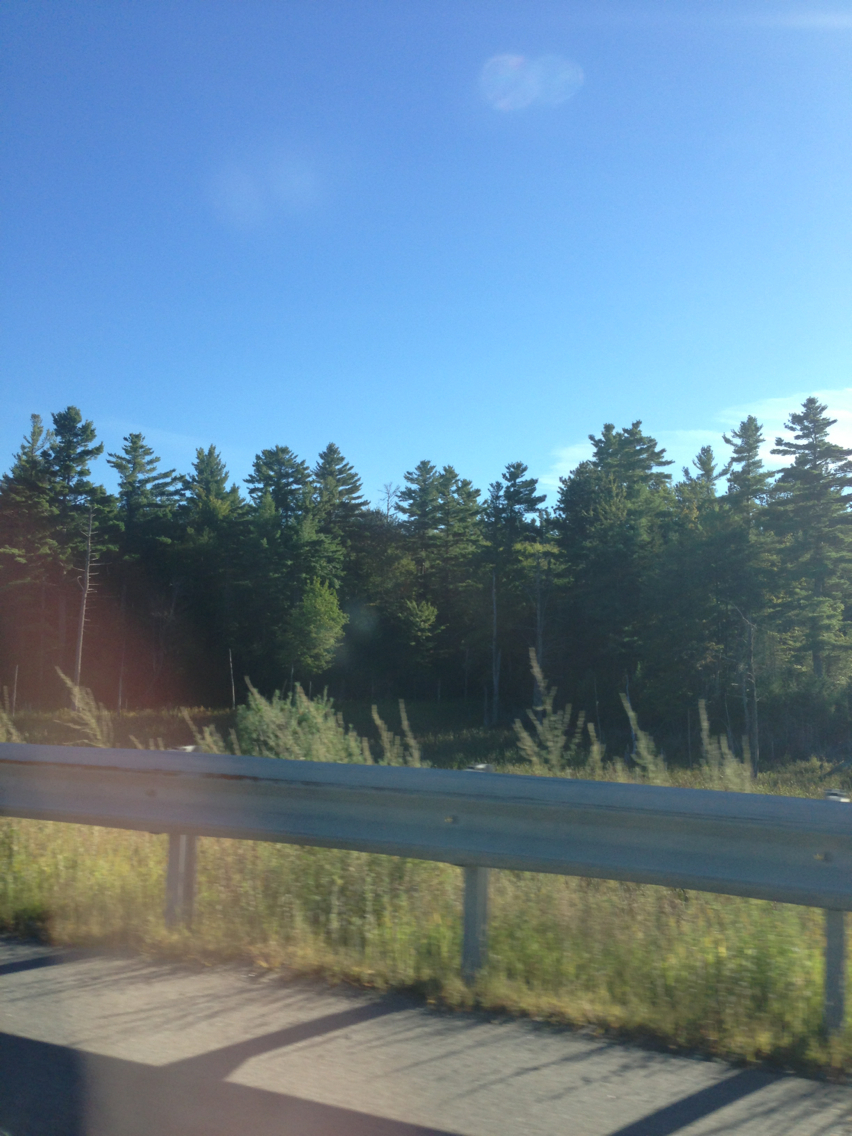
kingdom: Plantae
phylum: Tracheophyta
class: Pinopsida
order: Pinales
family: Pinaceae
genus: Pinus
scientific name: Pinus strobus
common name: Weymouth pine
